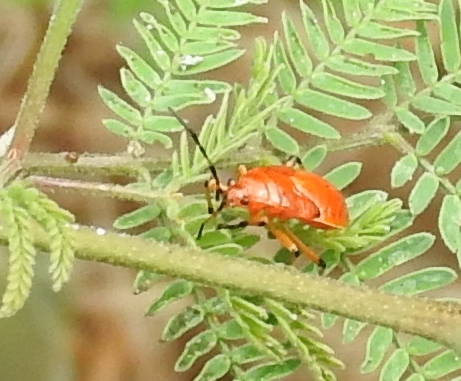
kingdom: Animalia
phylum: Arthropoda
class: Insecta
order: Hemiptera
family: Largidae
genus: Largus
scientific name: Largus
